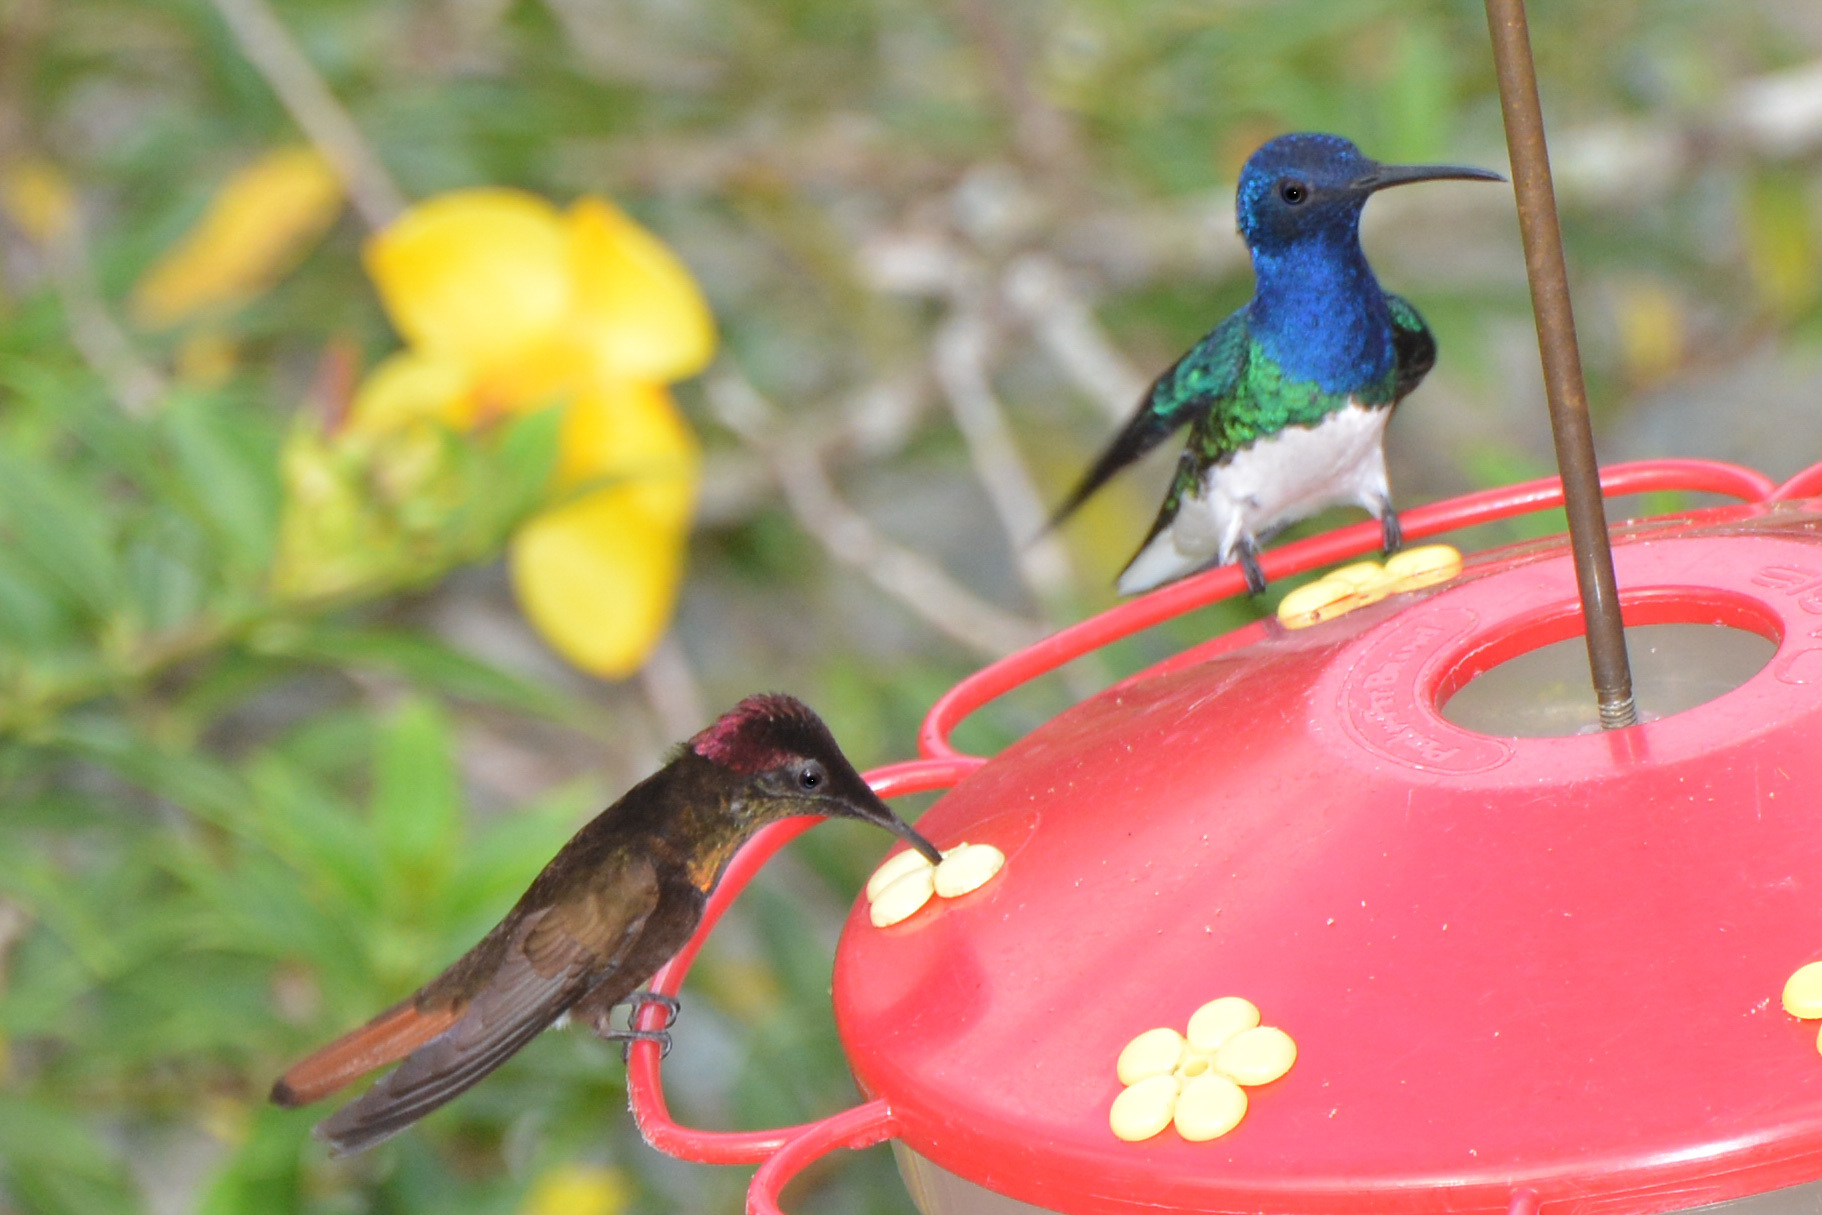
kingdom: Animalia
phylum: Chordata
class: Aves
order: Apodiformes
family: Trochilidae
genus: Florisuga
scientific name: Florisuga mellivora
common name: White-necked jacobin
